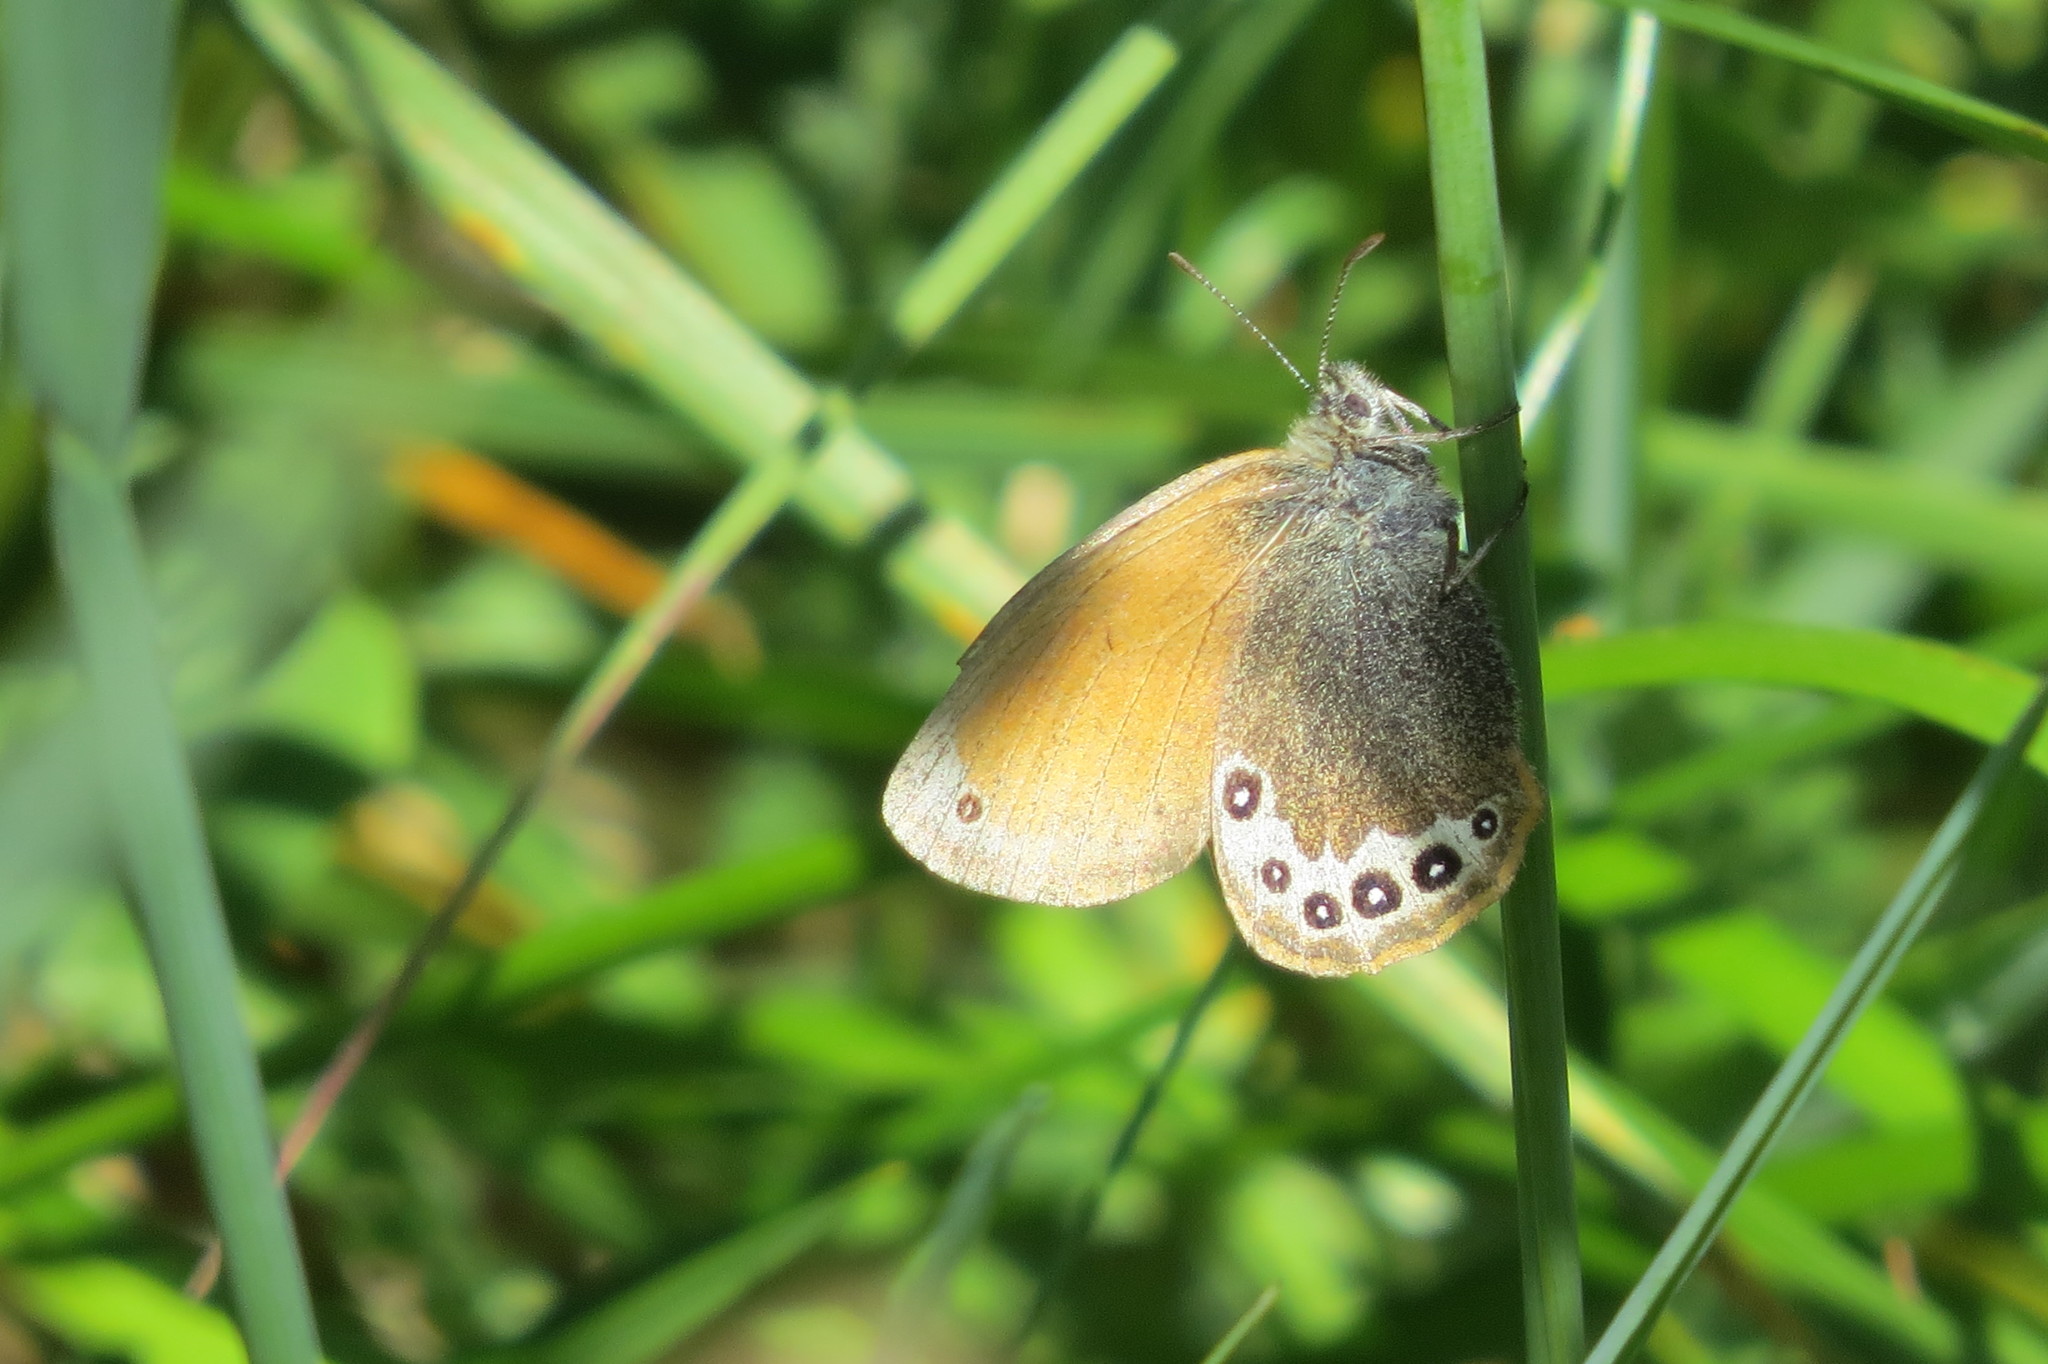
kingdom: Animalia
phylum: Arthropoda
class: Insecta
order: Lepidoptera
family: Nymphalidae
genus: Coenonympha
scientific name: Coenonympha
